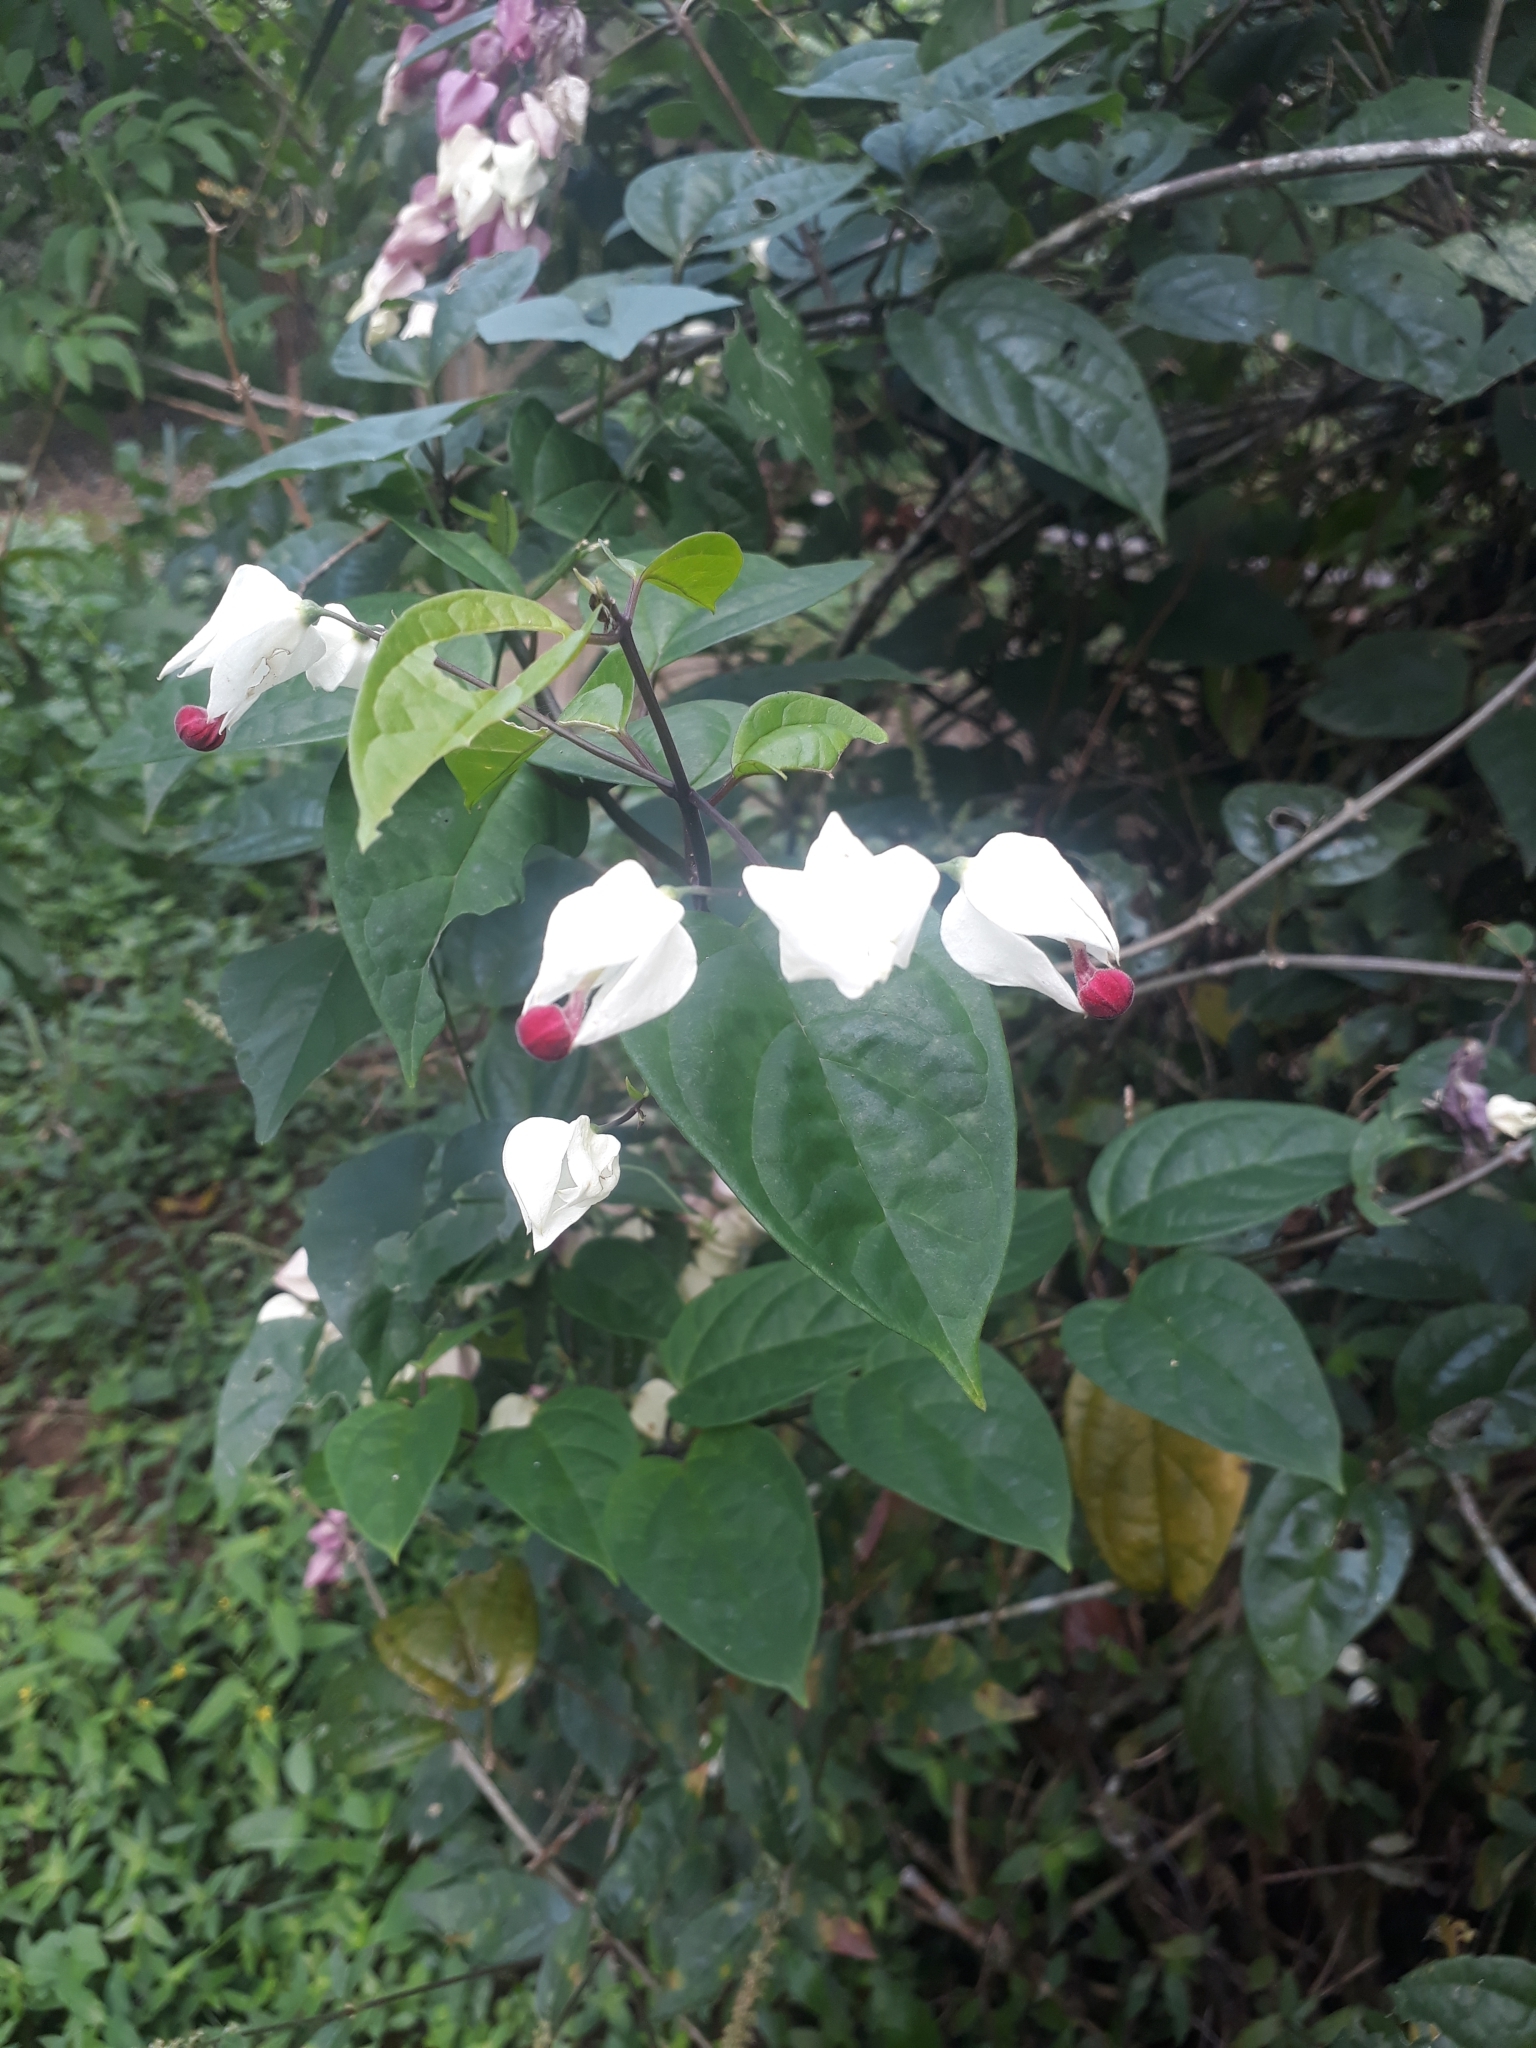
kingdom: Plantae
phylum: Tracheophyta
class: Magnoliopsida
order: Lamiales
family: Lamiaceae
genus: Clerodendrum
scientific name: Clerodendrum thomsoniae
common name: Bagflower
